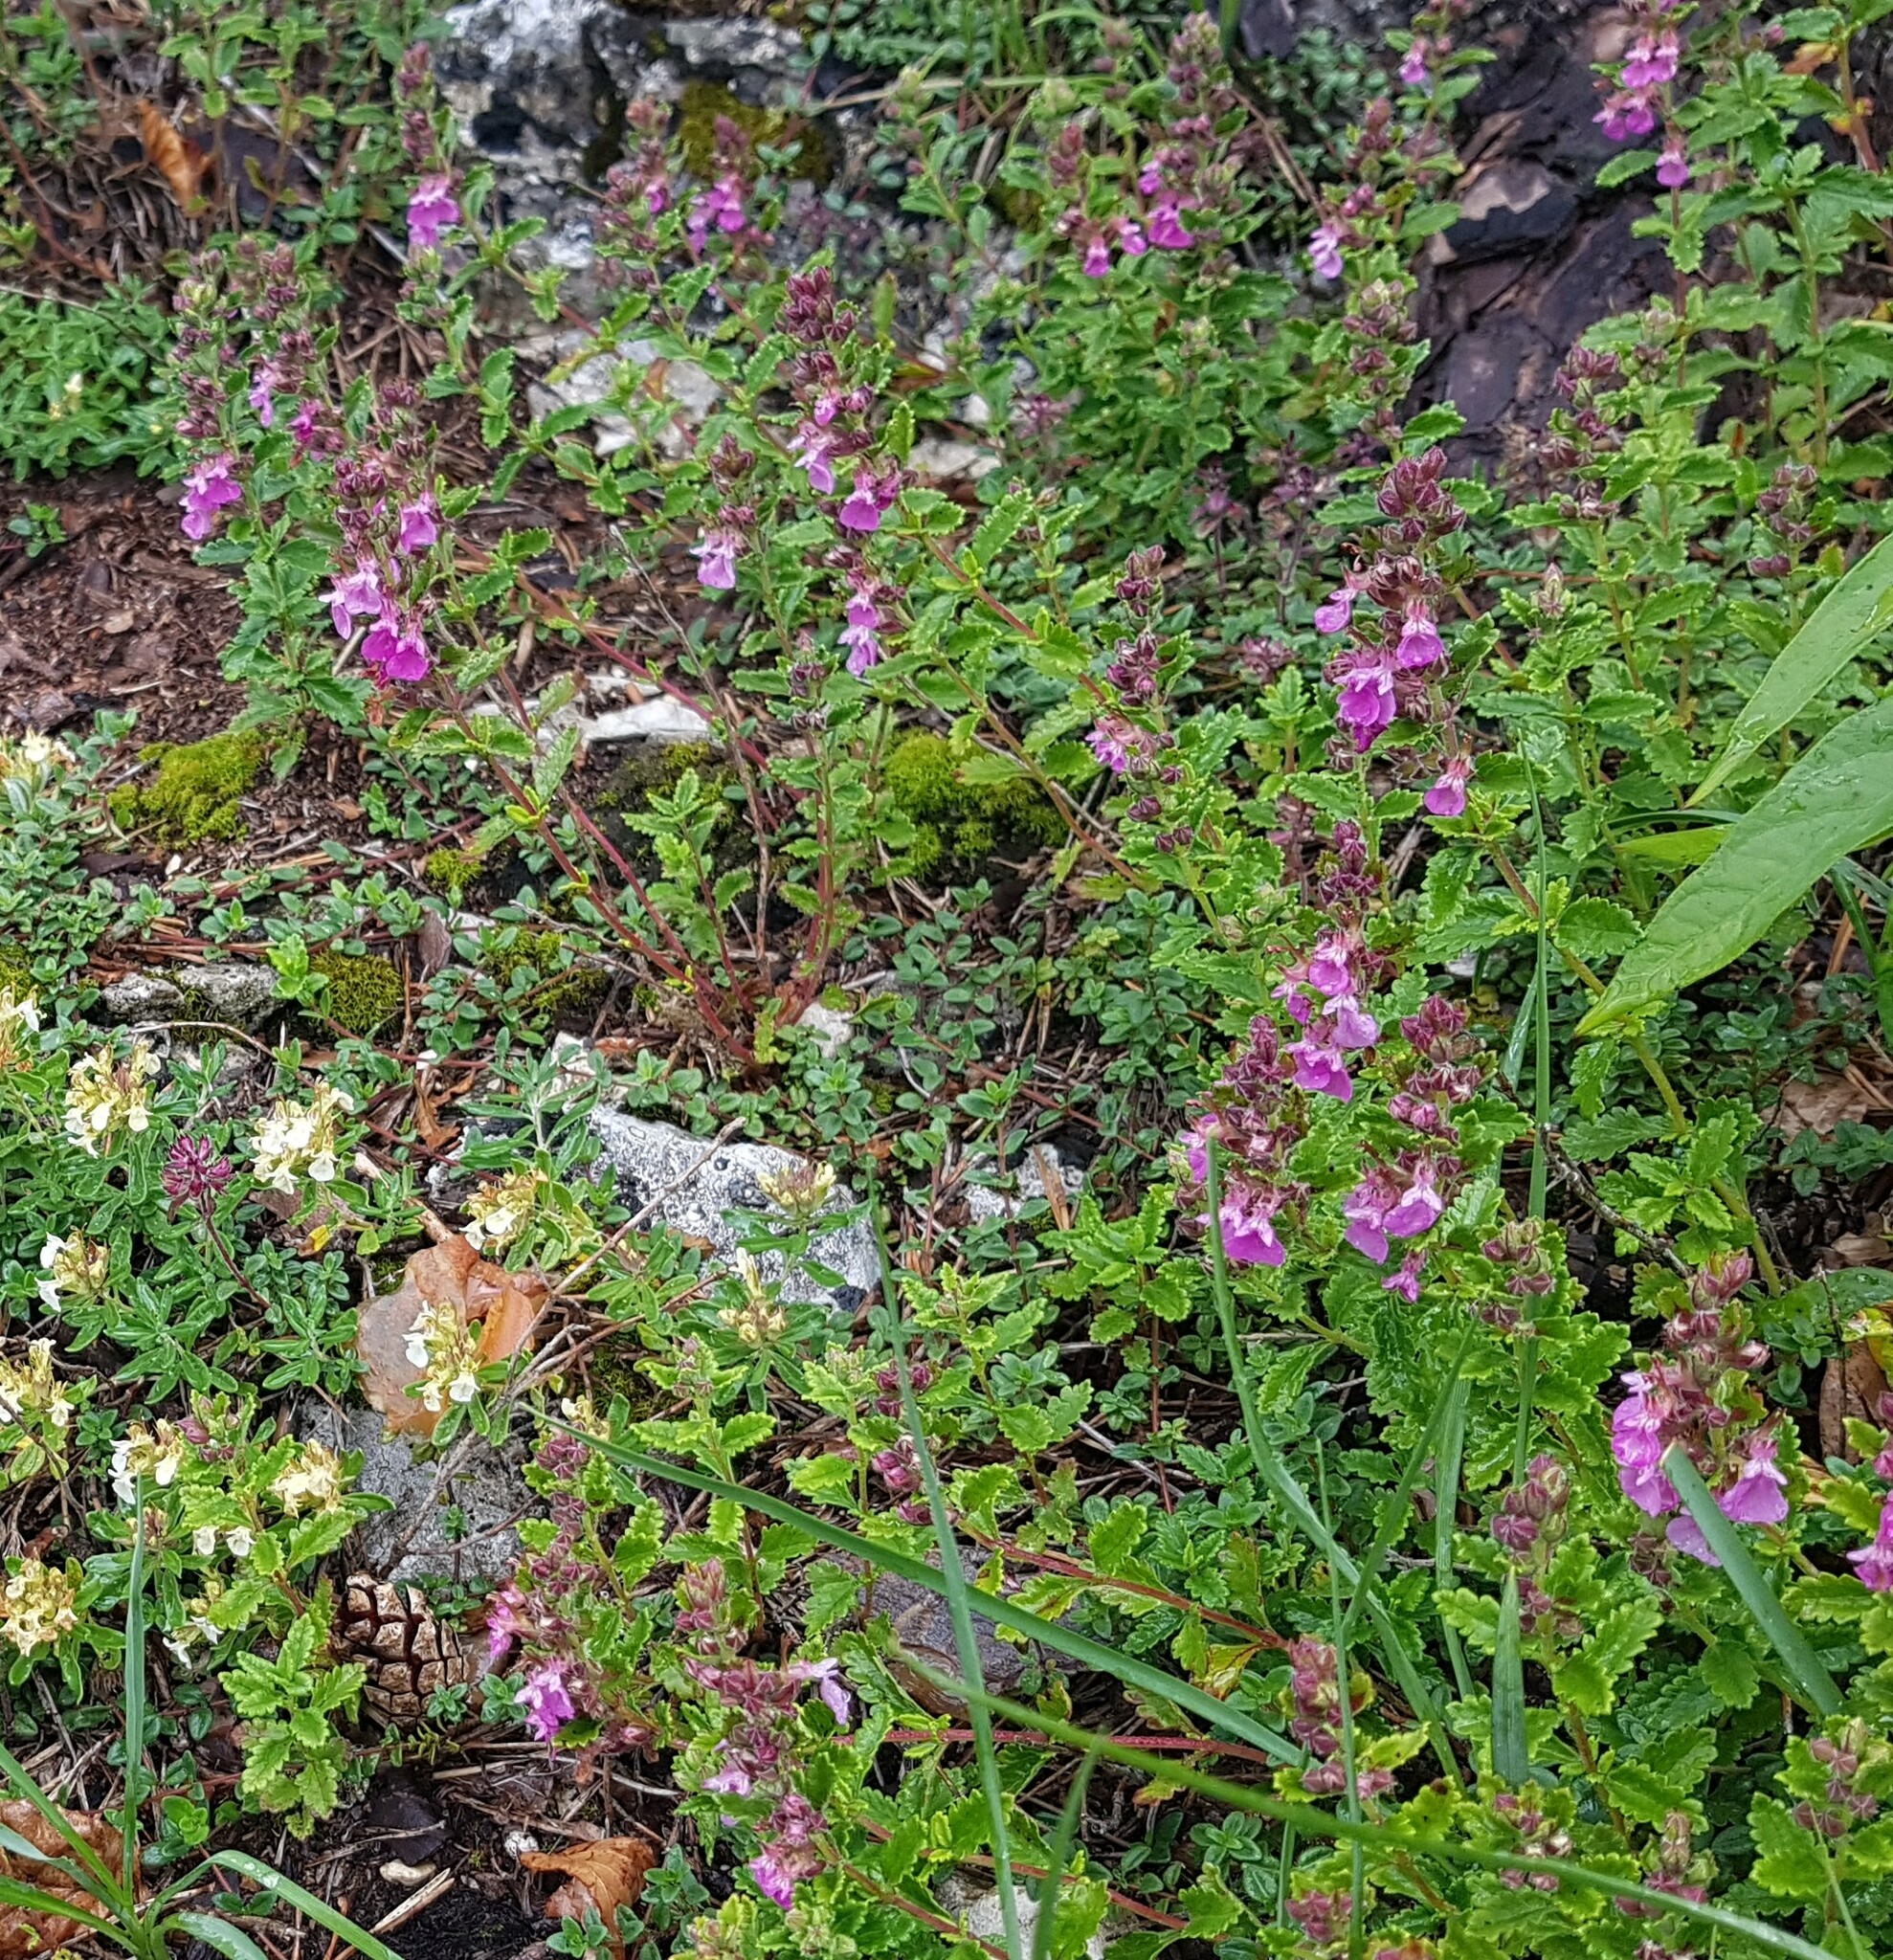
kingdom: Plantae
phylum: Tracheophyta
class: Magnoliopsida
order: Lamiales
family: Lamiaceae
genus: Teucrium
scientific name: Teucrium chamaedrys
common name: Wall germander
